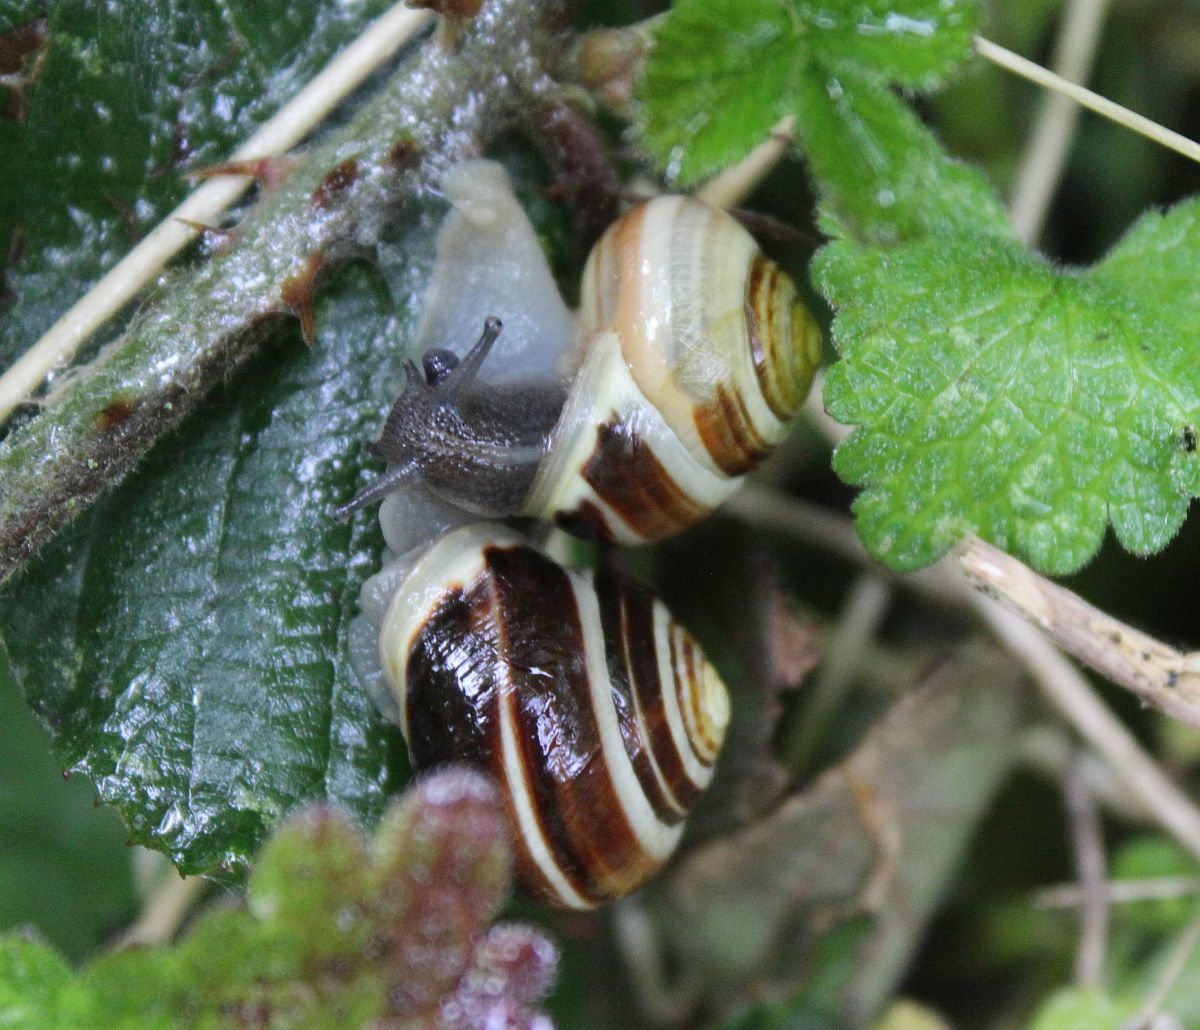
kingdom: Animalia
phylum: Mollusca
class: Gastropoda
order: Stylommatophora
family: Helicidae
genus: Cepaea
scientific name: Cepaea hortensis
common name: White-lip gardensnail
